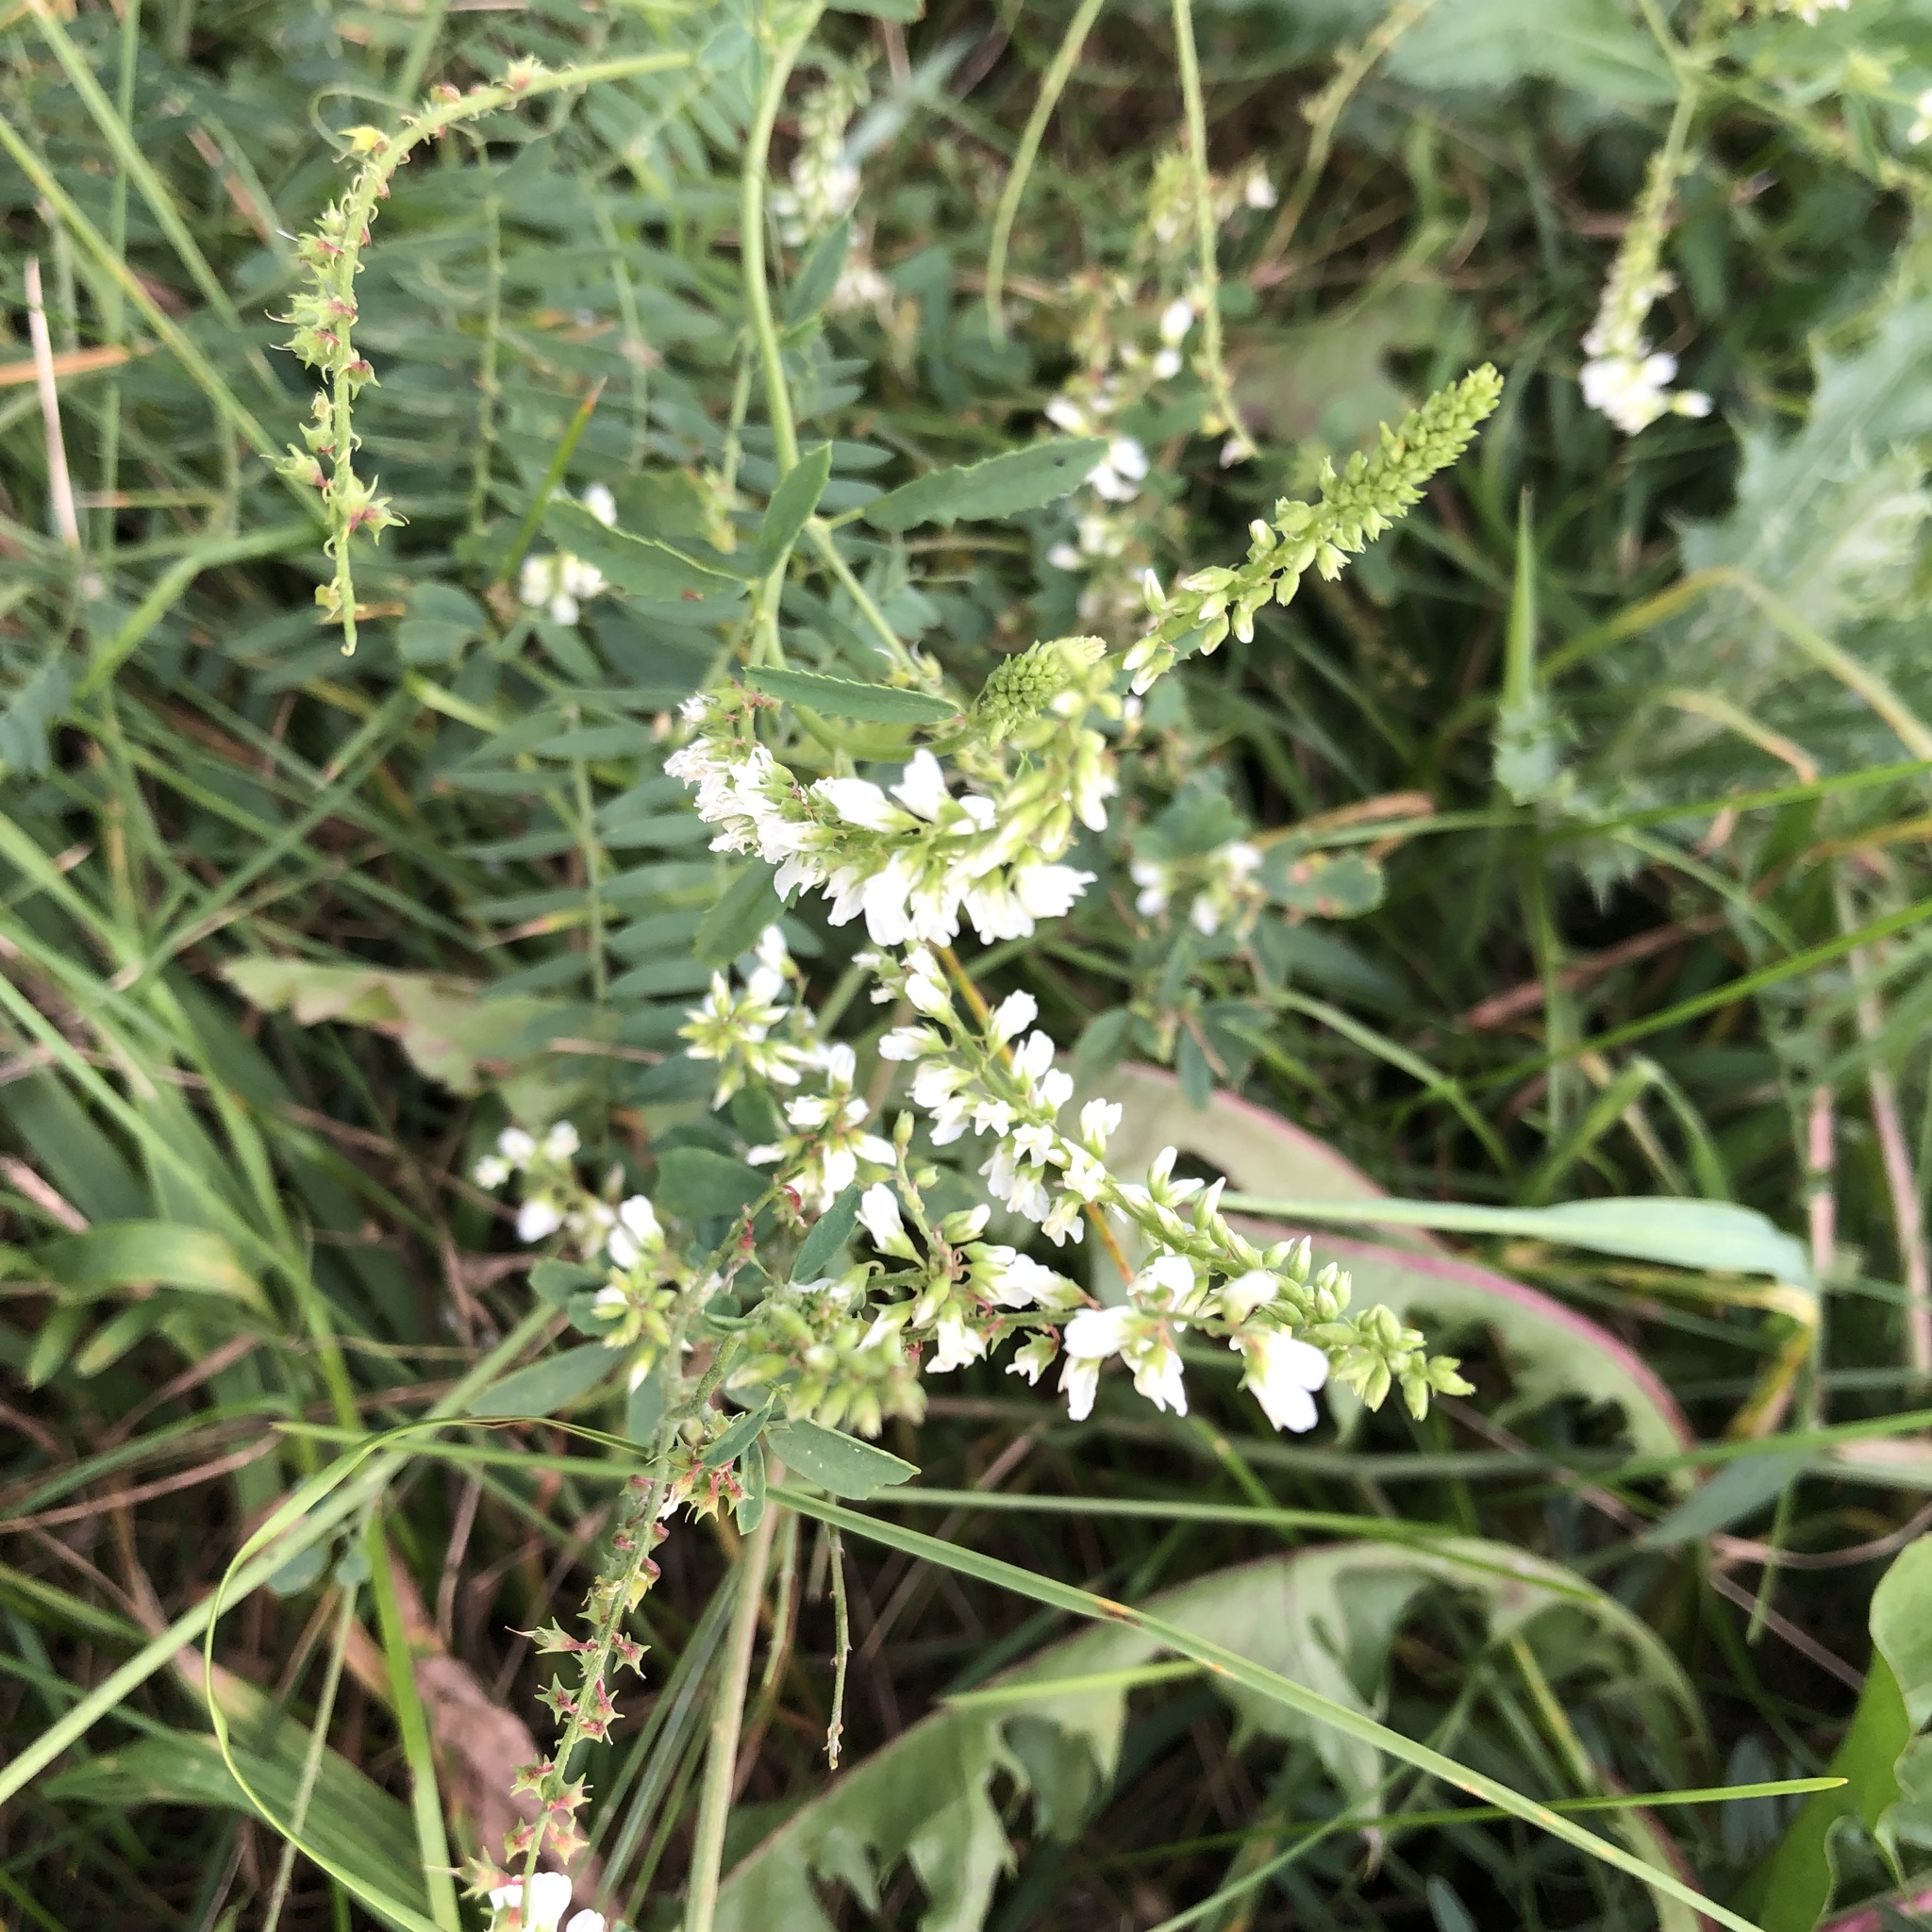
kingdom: Plantae
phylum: Tracheophyta
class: Magnoliopsida
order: Fabales
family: Fabaceae
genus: Melilotus
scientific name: Melilotus albus
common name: White melilot
